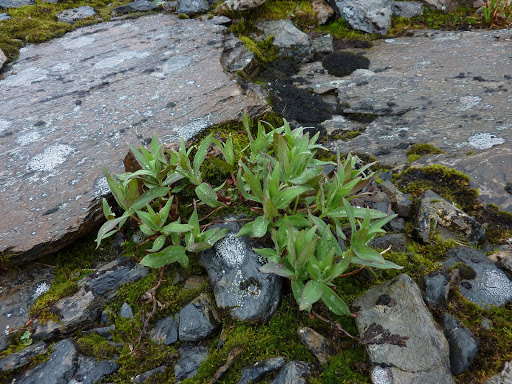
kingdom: Plantae
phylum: Tracheophyta
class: Magnoliopsida
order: Myrtales
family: Onagraceae
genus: Chamaenerion
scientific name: Chamaenerion latifolium
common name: Dwarf fireweed
